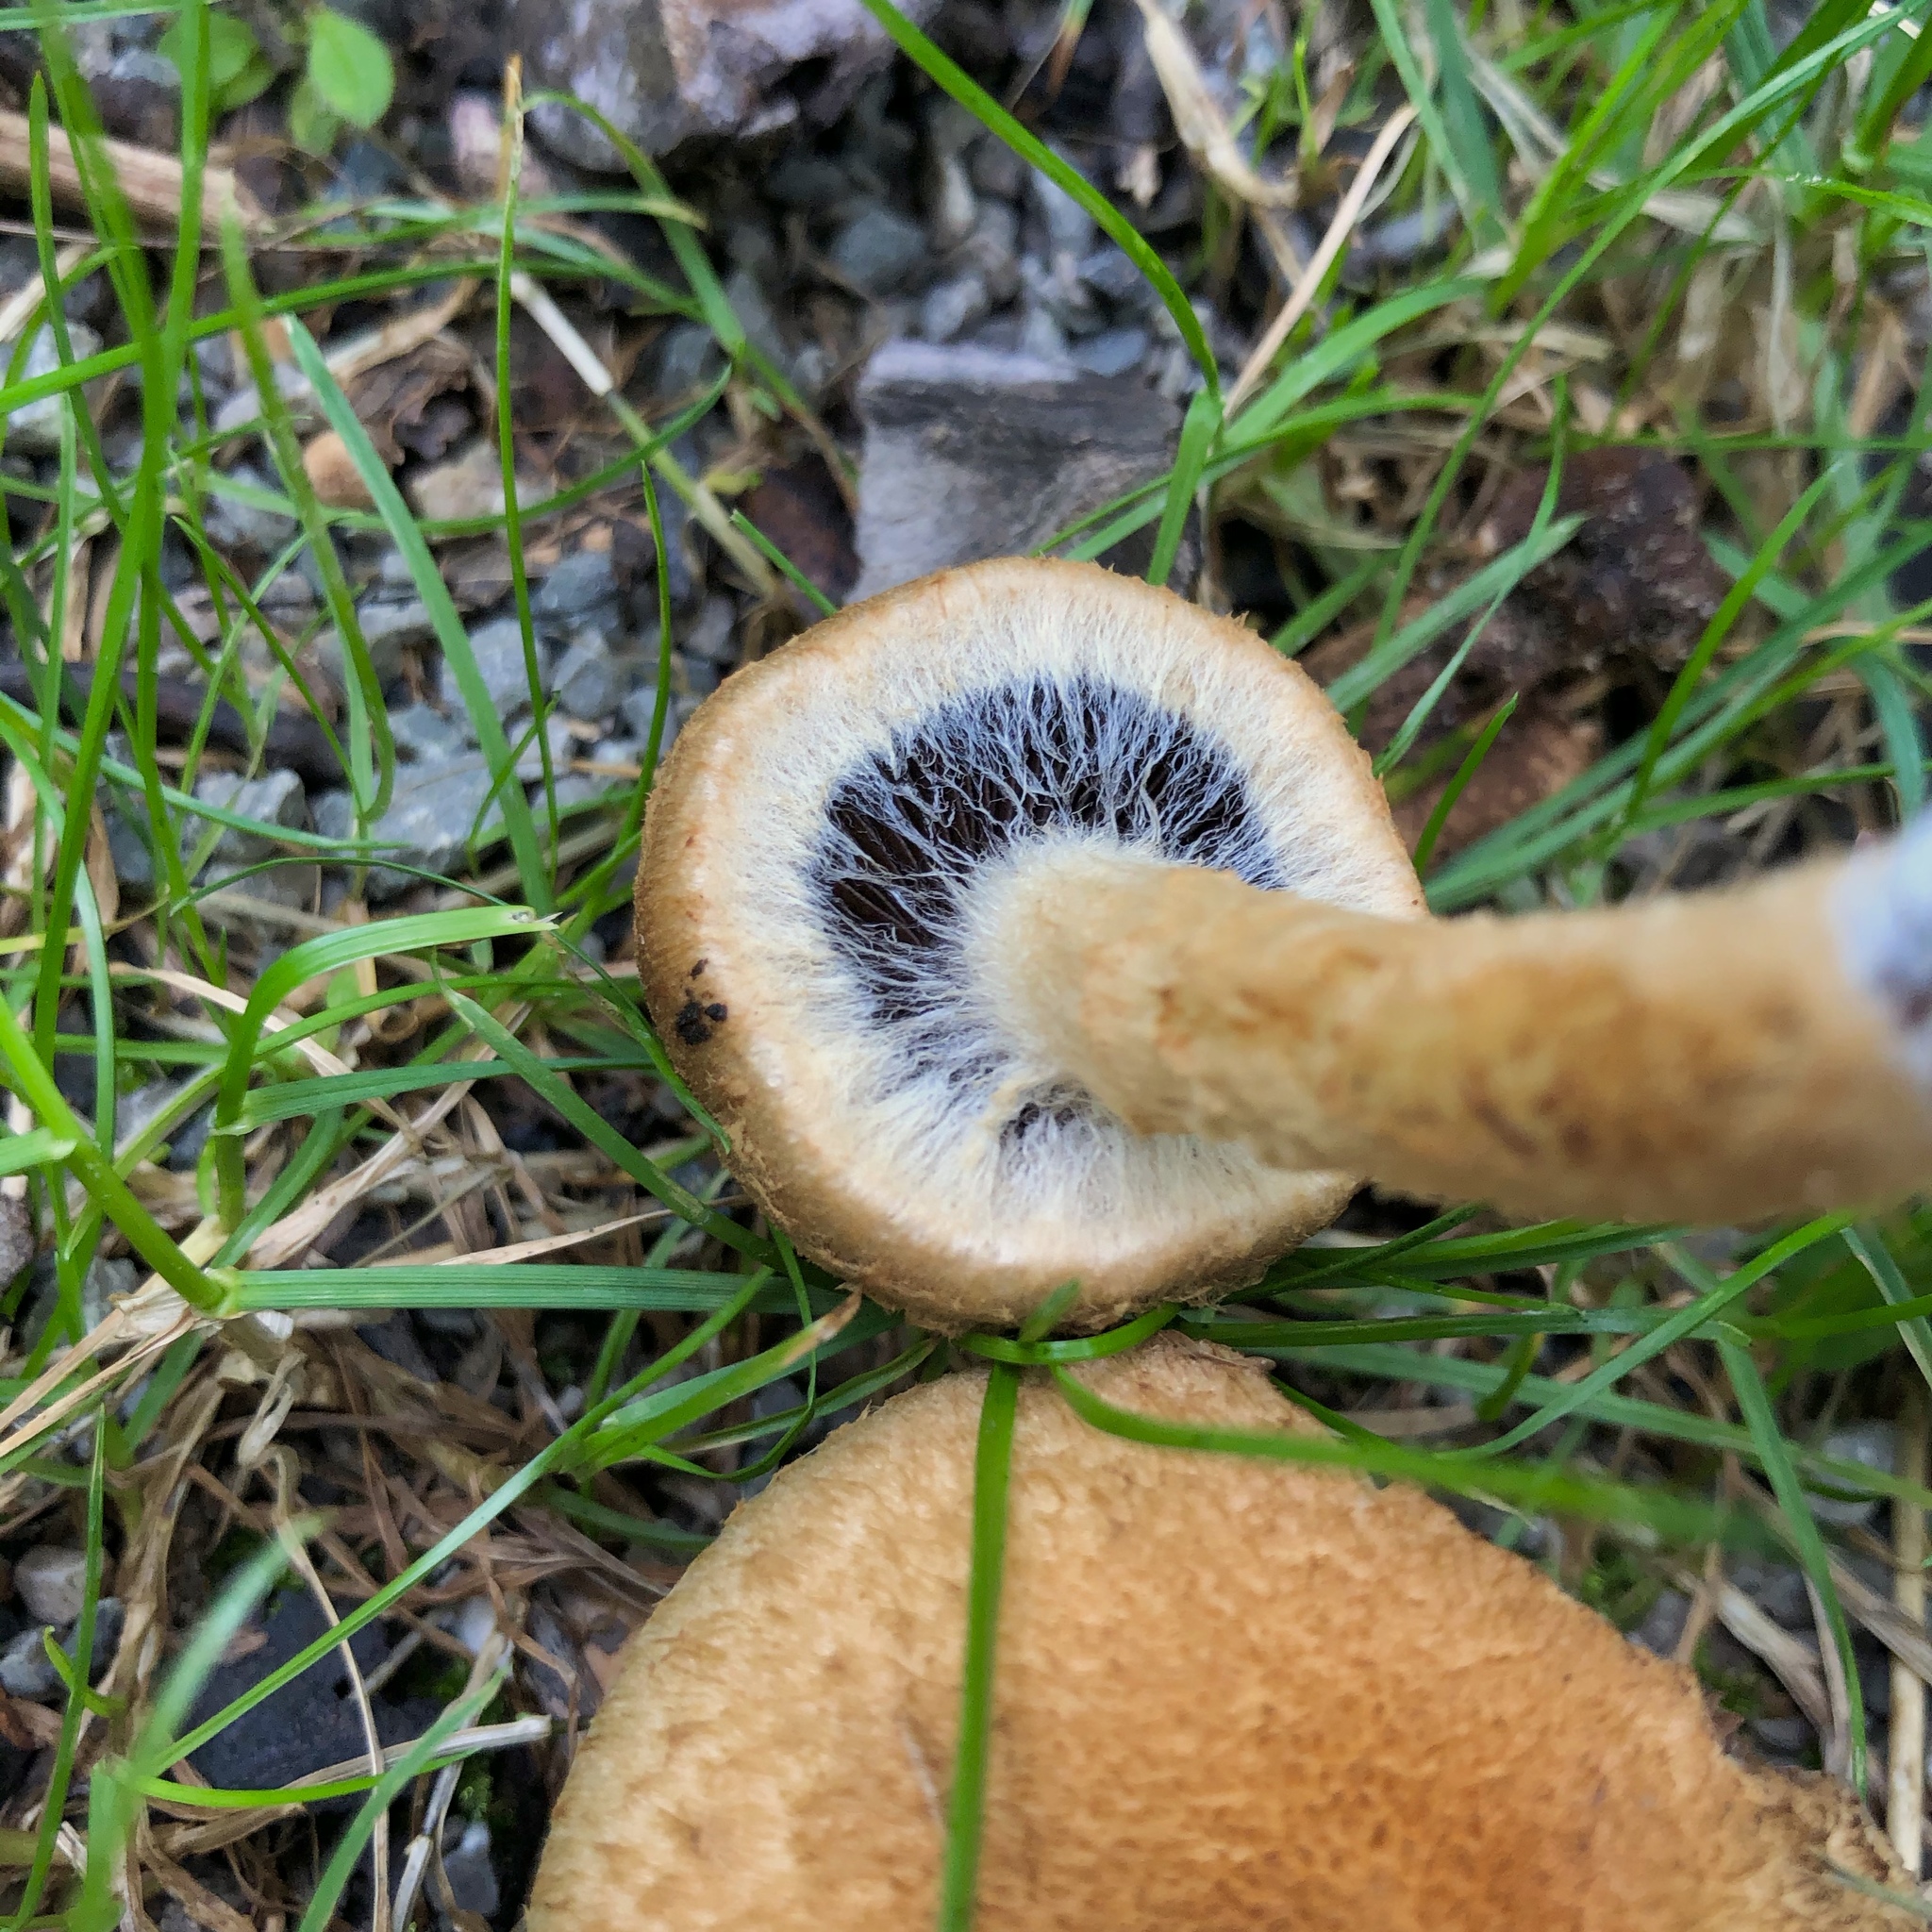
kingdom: Fungi
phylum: Basidiomycota
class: Agaricomycetes
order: Agaricales
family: Psathyrellaceae
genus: Lacrymaria
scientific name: Lacrymaria lacrymabunda
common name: Weeping widow
